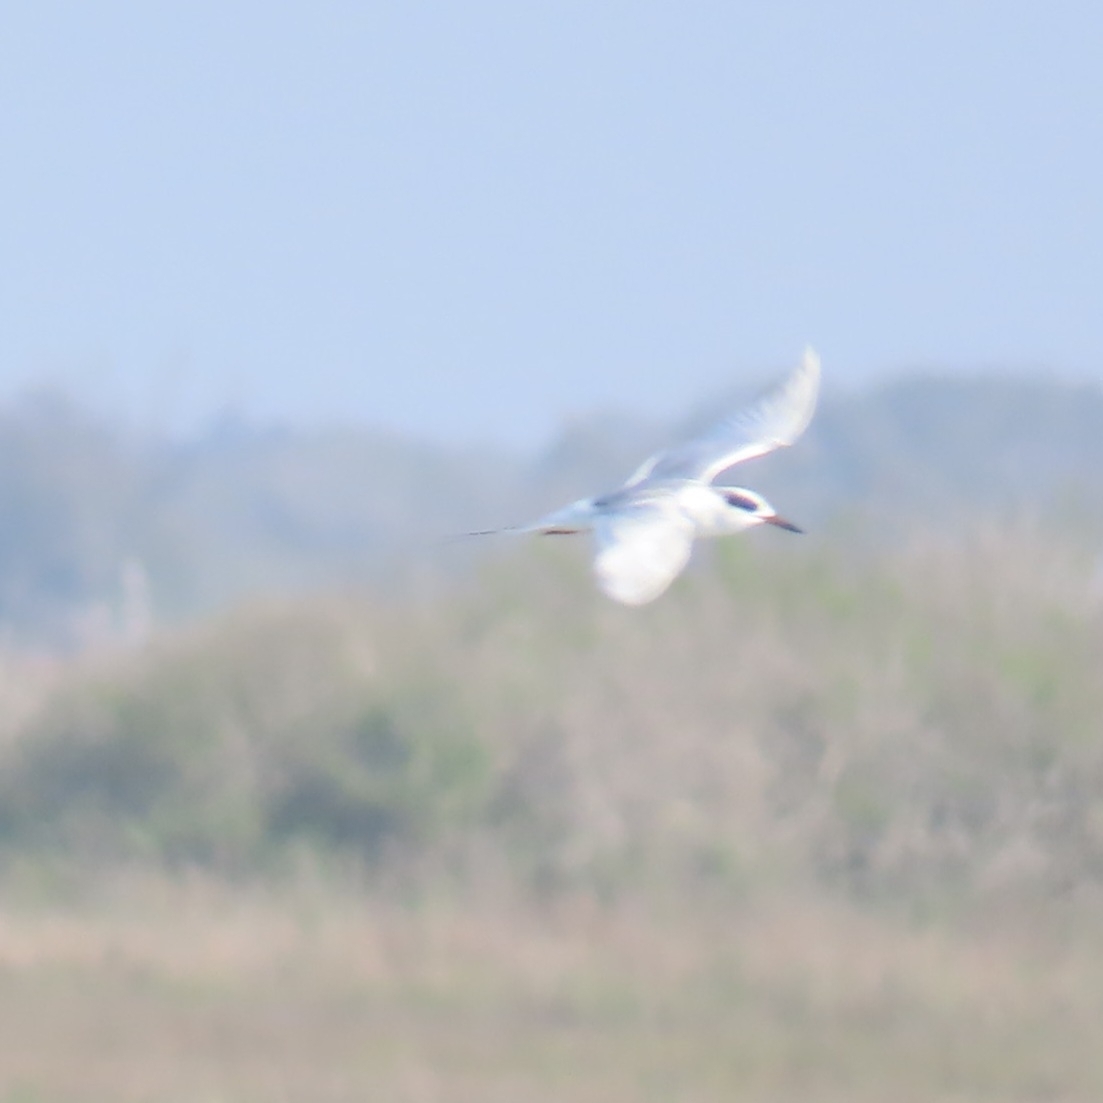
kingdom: Animalia
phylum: Chordata
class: Aves
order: Charadriiformes
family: Laridae
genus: Sterna
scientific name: Sterna forsteri
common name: Forster's tern
